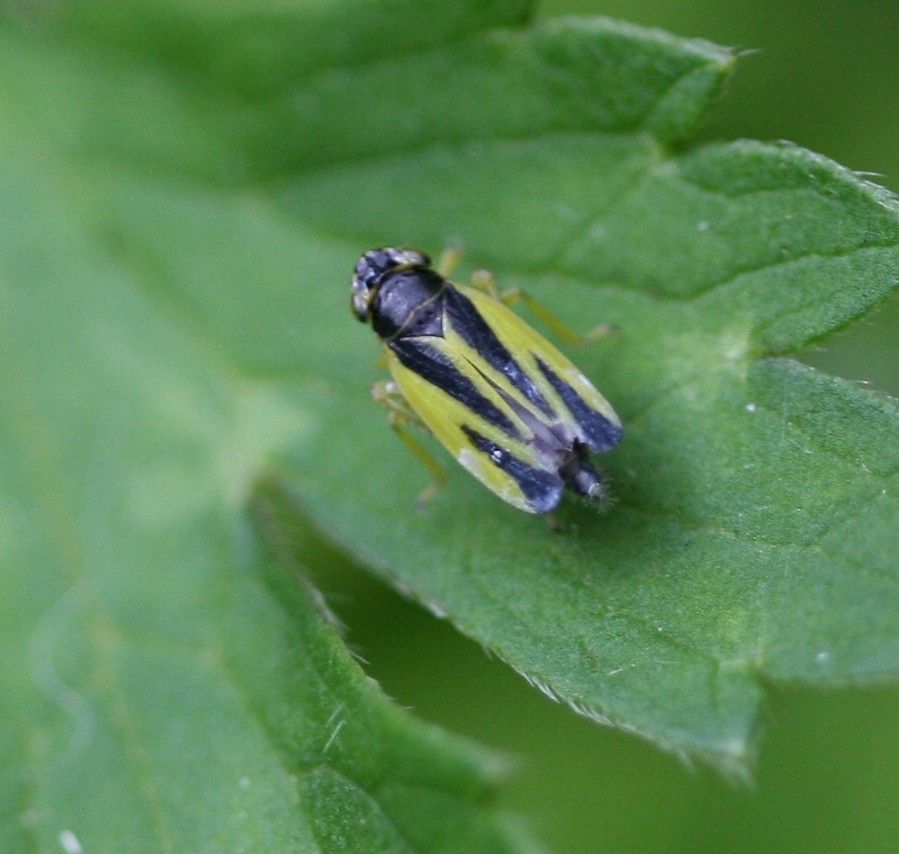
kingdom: Animalia
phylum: Arthropoda
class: Insecta
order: Hemiptera
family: Cicadellidae
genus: Evacanthus
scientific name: Evacanthus interruptus
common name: Leafhopper
